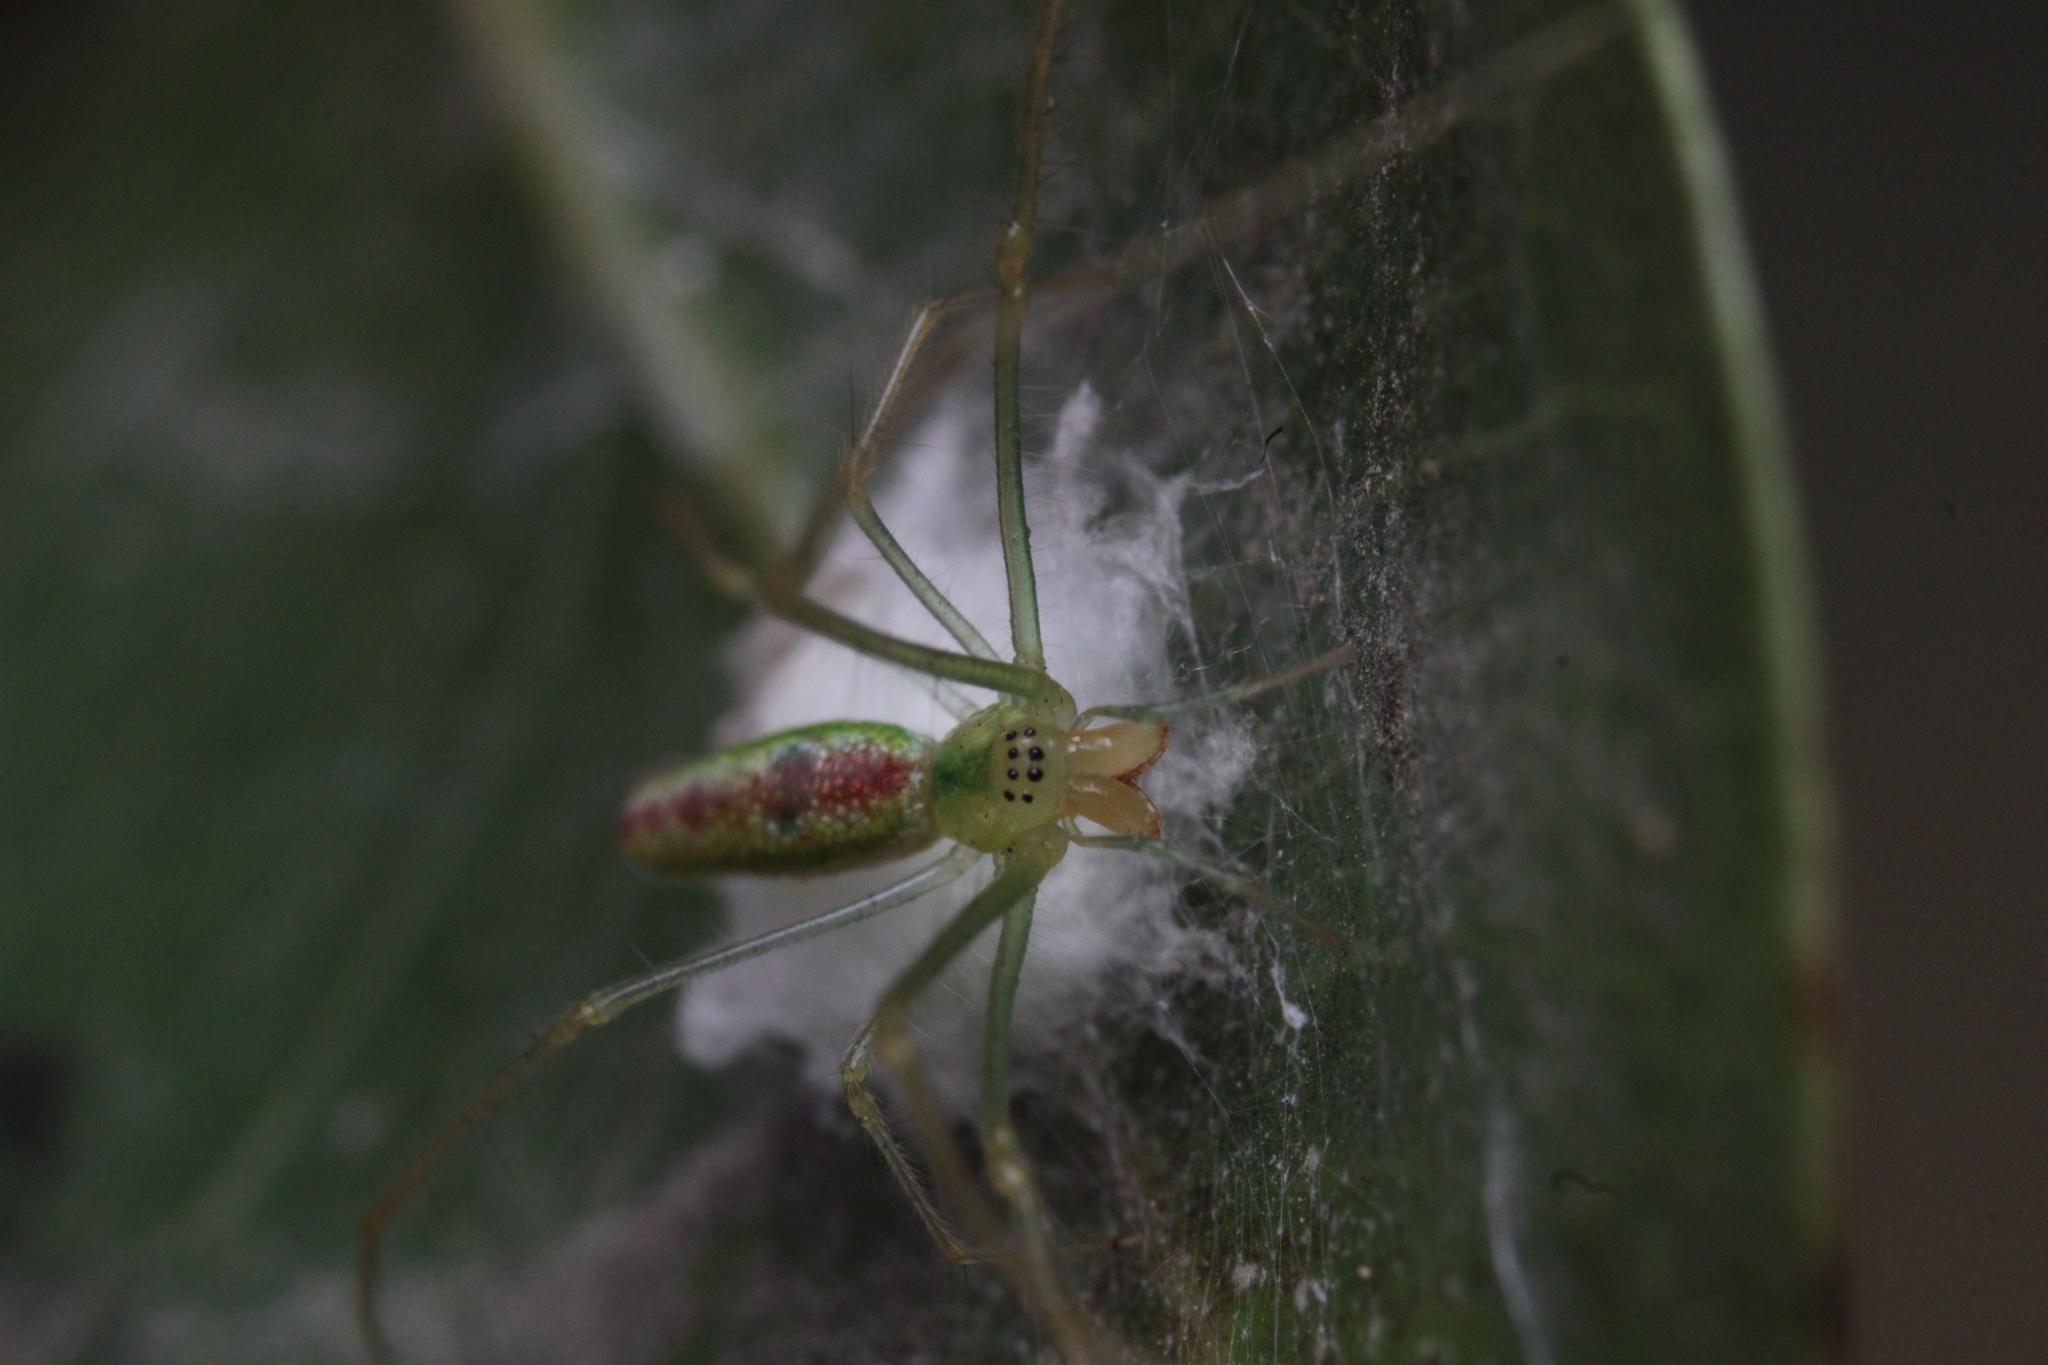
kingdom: Animalia
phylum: Arthropoda
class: Arachnida
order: Araneae
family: Tetragnathidae
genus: Tetragnatha
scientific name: Tetragnatha subsquamata
